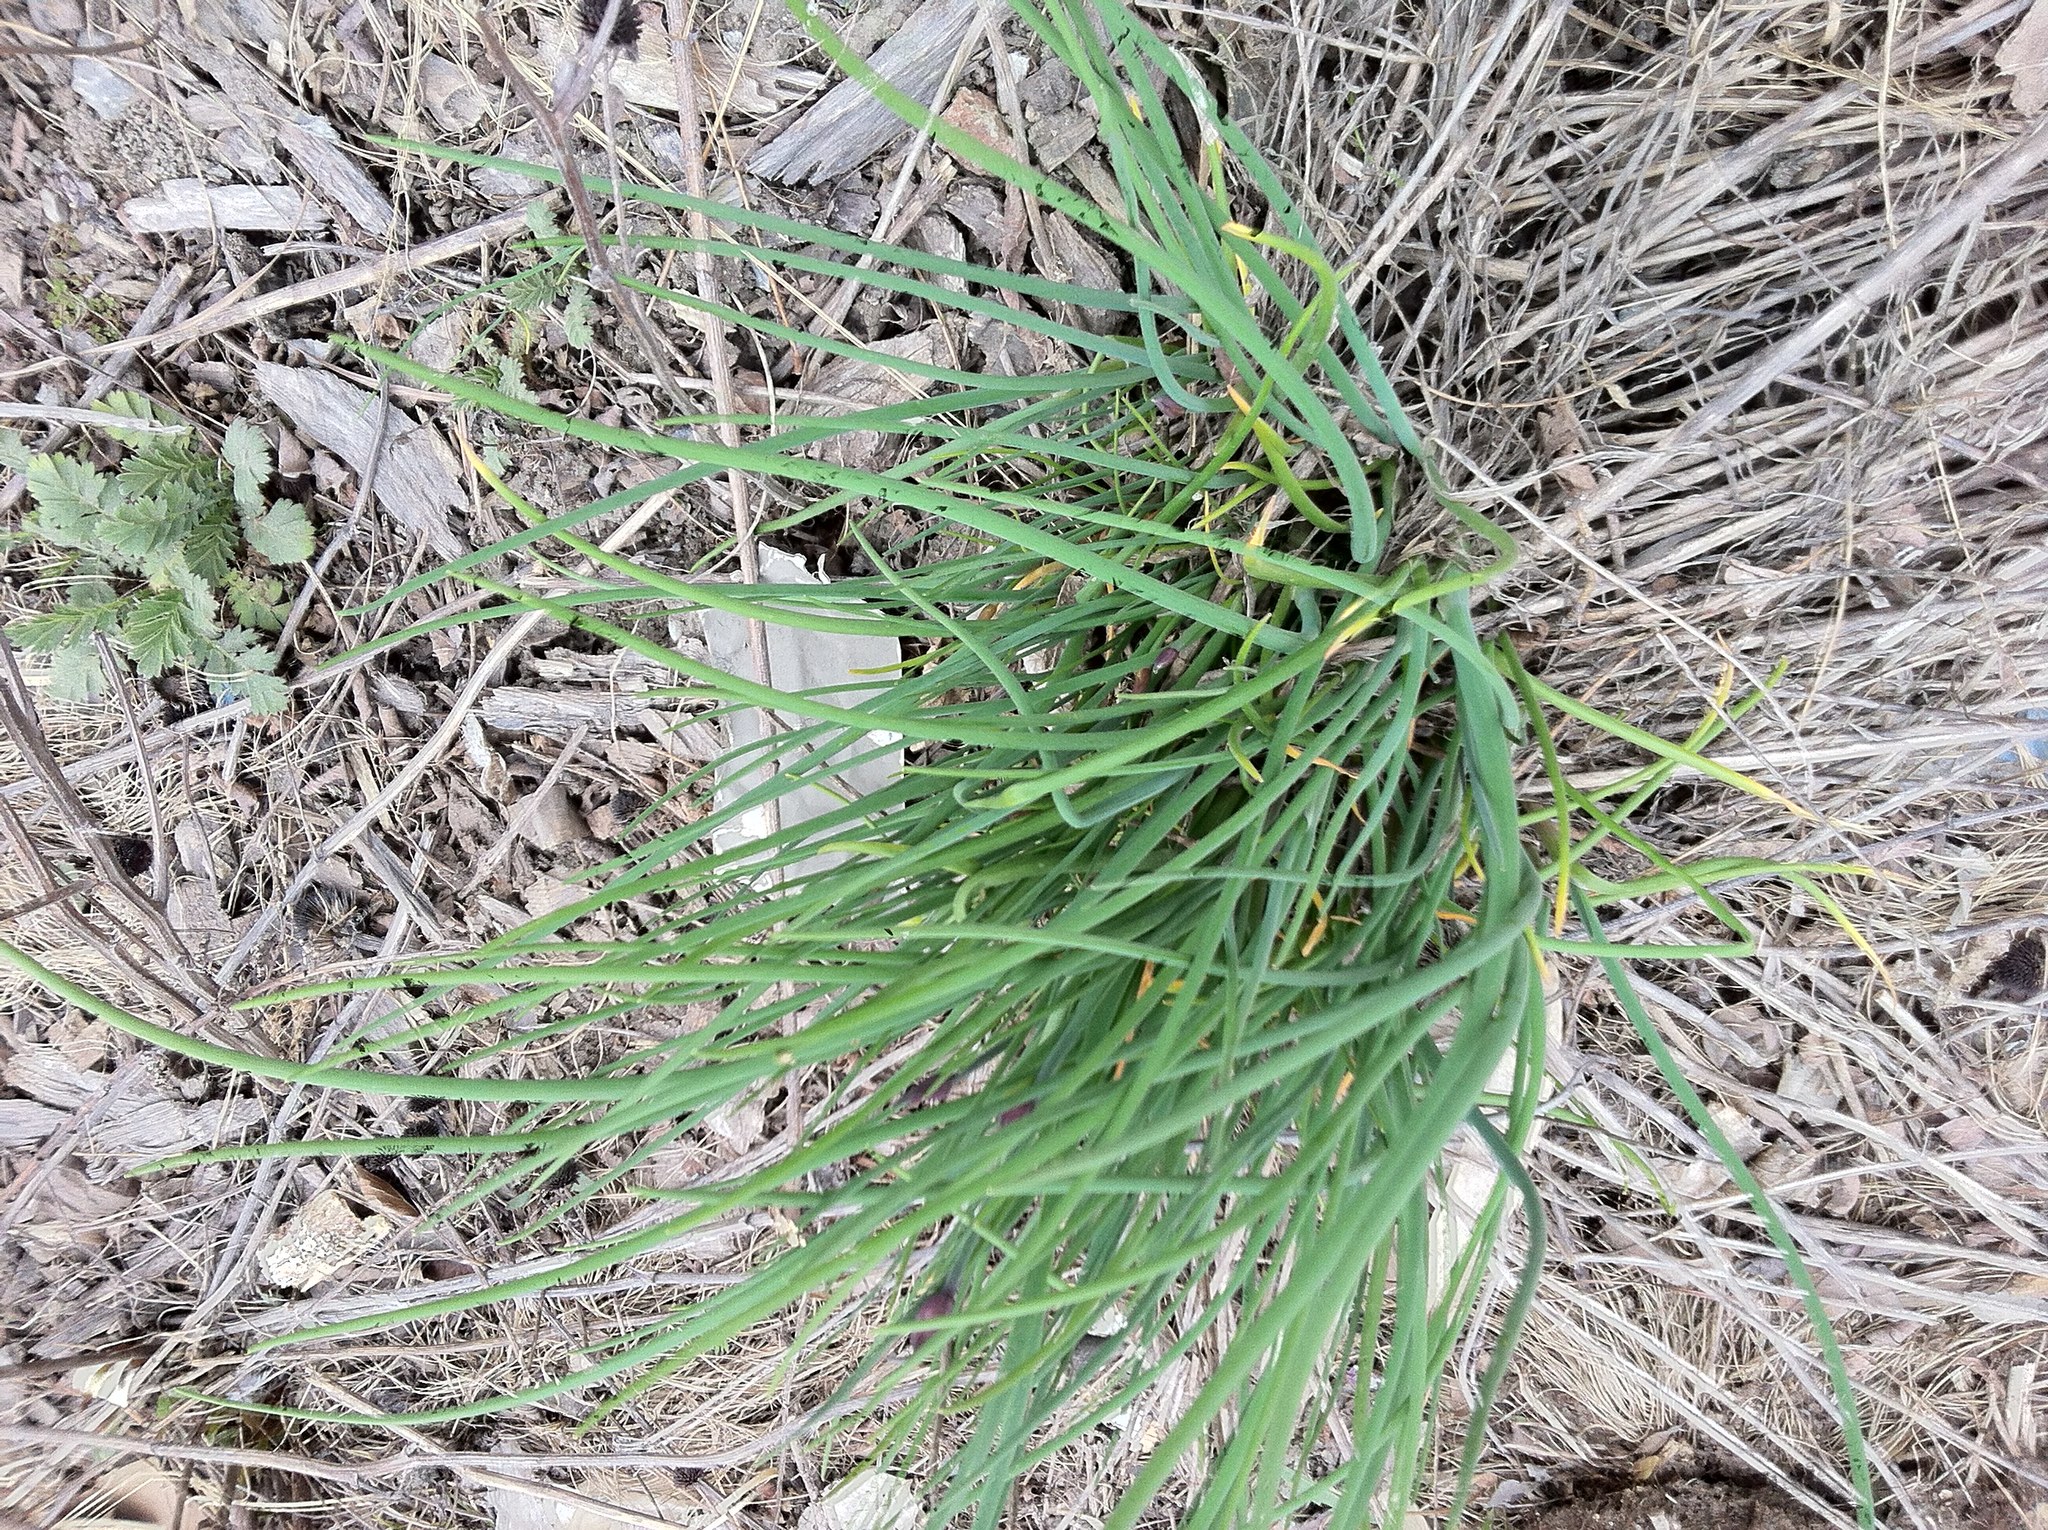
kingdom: Plantae
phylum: Tracheophyta
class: Liliopsida
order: Asparagales
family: Amaryllidaceae
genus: Allium
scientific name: Allium vineale
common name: Crow garlic
